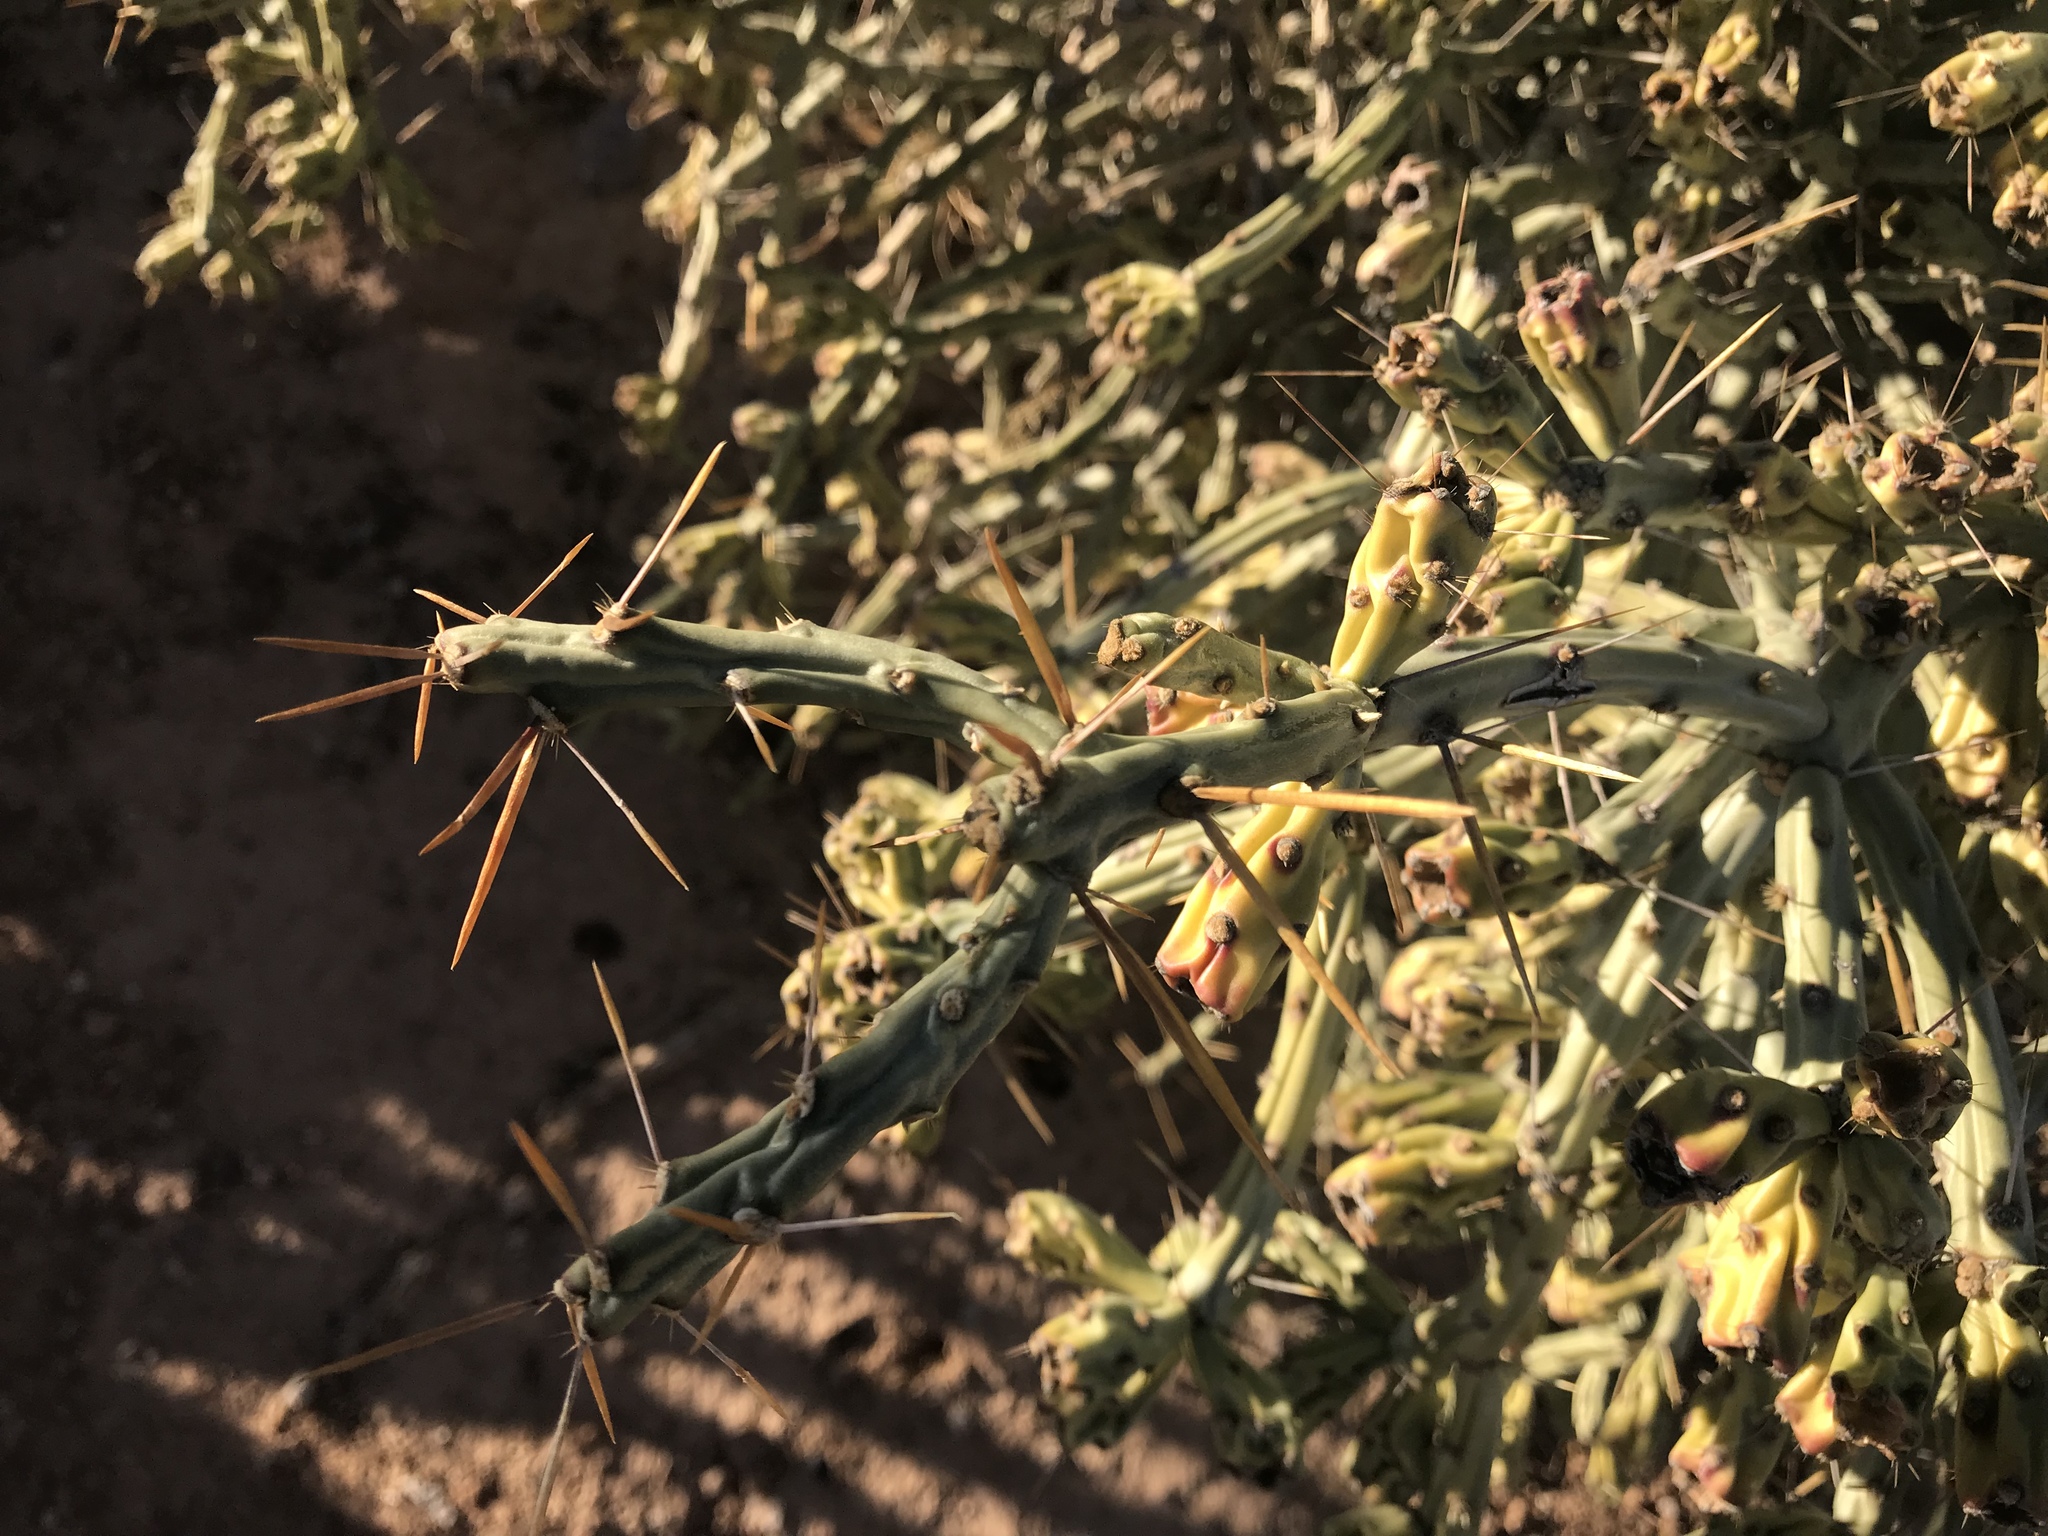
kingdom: Plantae
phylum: Tracheophyta
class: Magnoliopsida
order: Caryophyllales
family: Cactaceae
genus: Cylindropuntia
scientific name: Cylindropuntia kleiniae
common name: Klein's cholla
